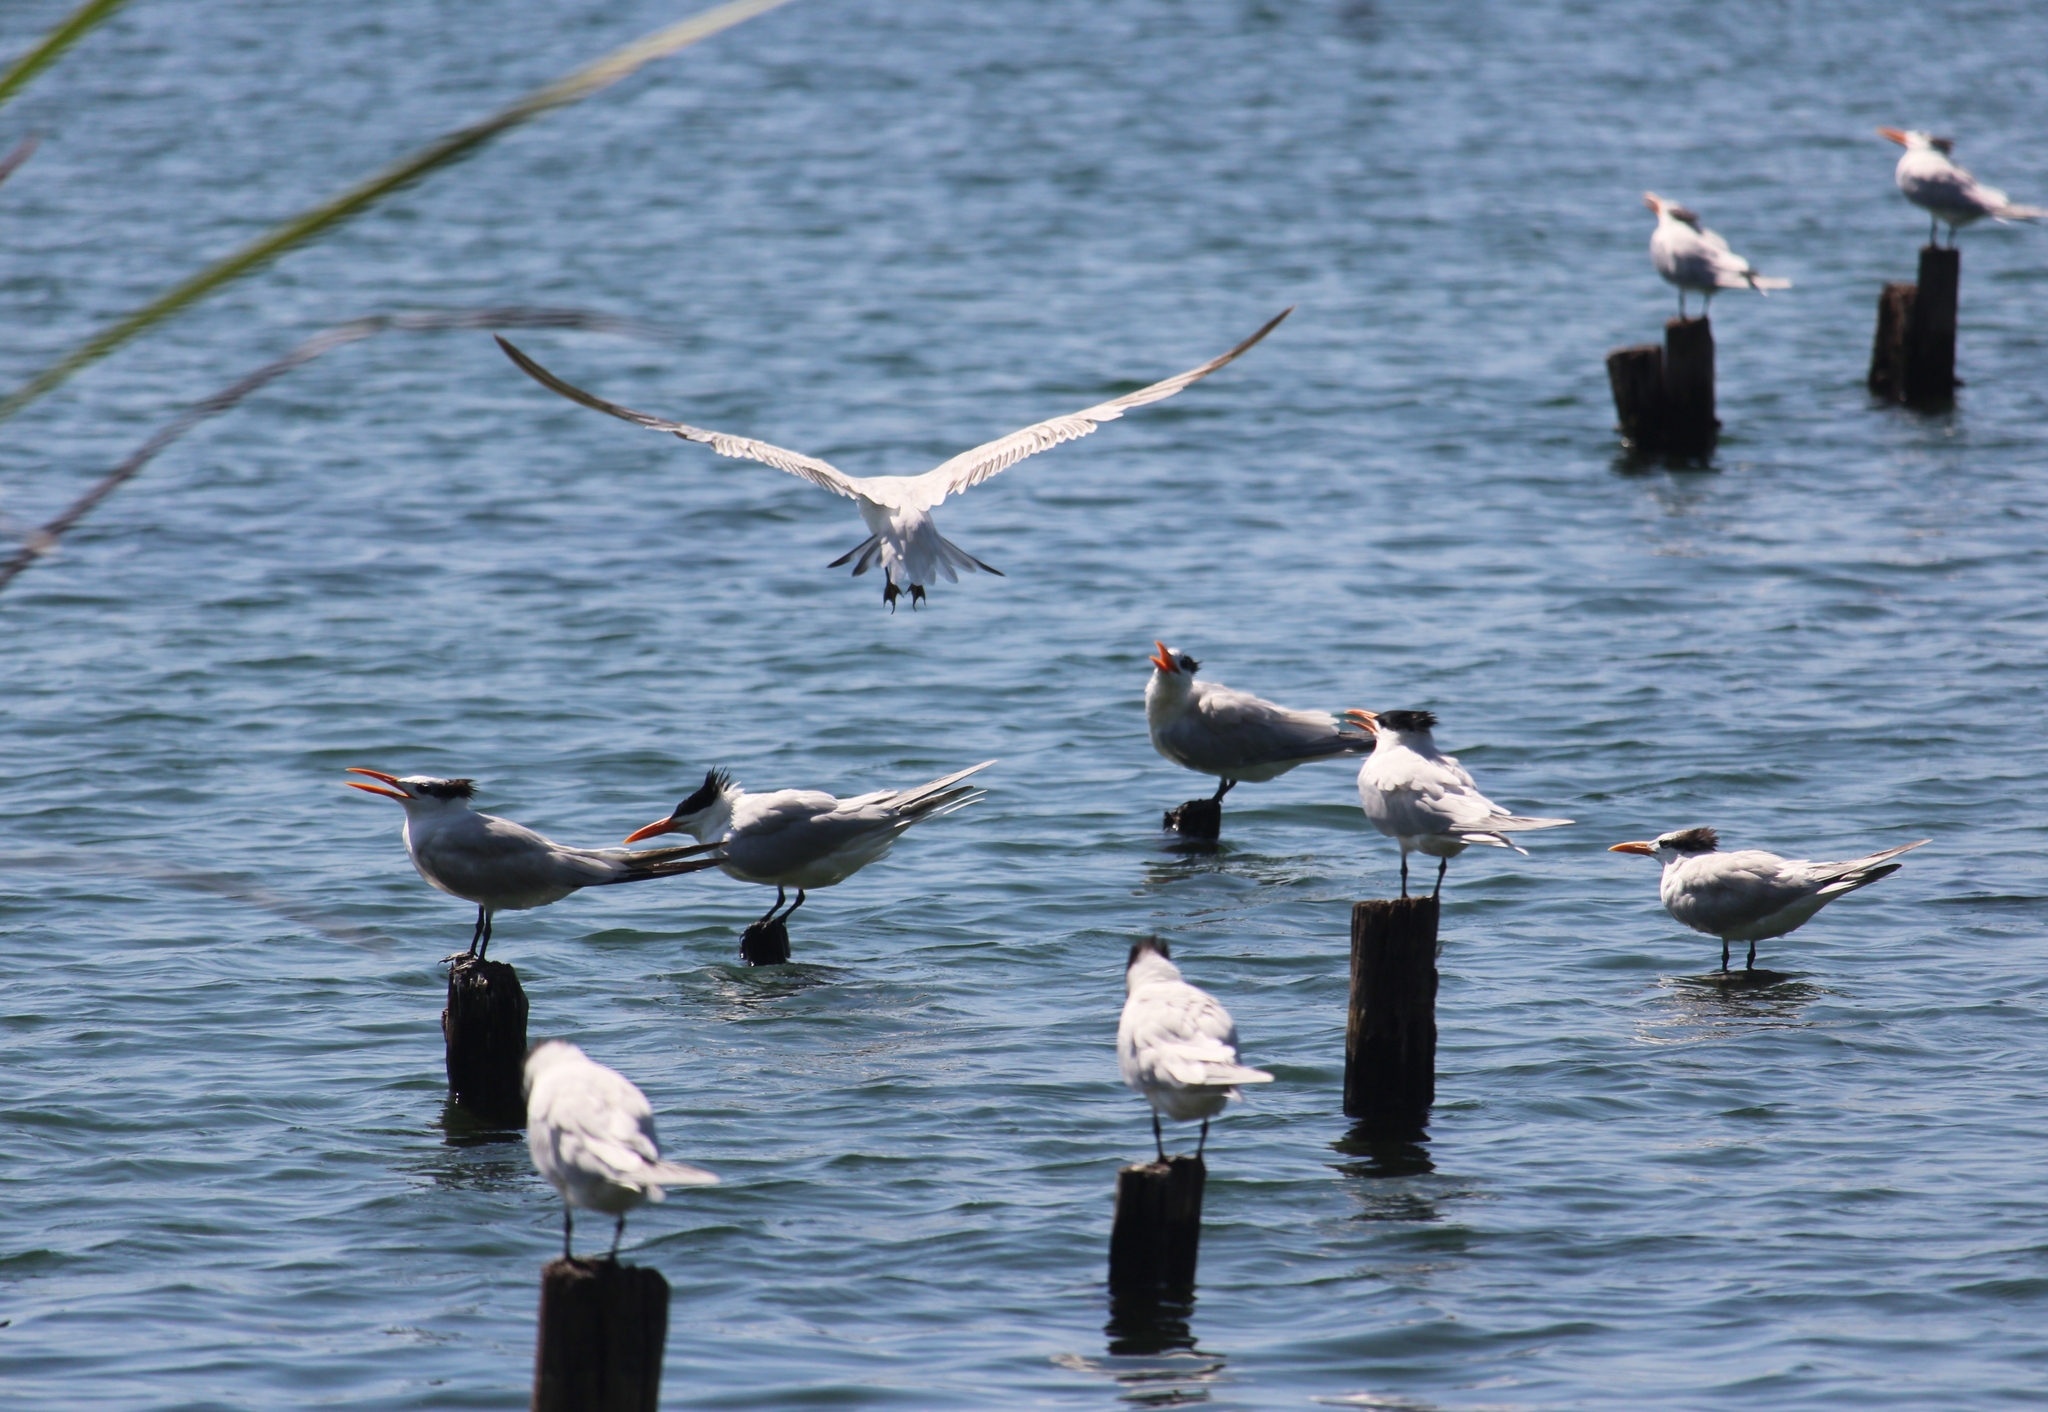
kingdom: Animalia
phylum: Chordata
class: Aves
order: Charadriiformes
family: Laridae
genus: Thalasseus
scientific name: Thalasseus maximus
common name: Royal tern
